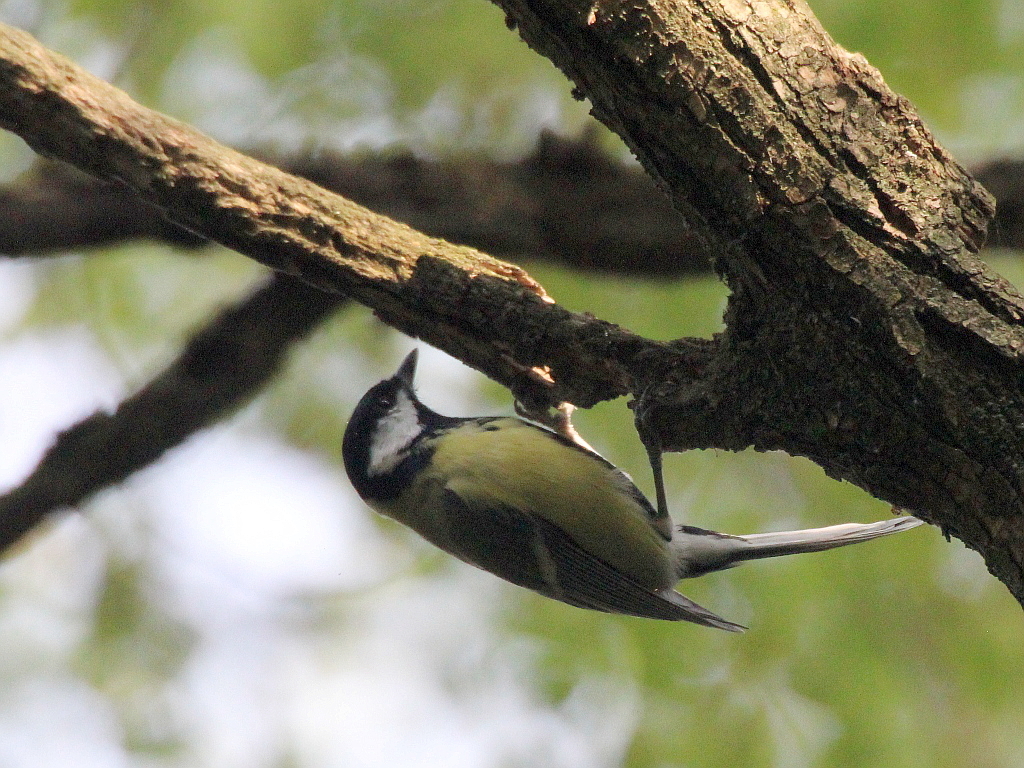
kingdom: Animalia
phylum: Chordata
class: Aves
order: Passeriformes
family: Paridae
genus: Parus
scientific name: Parus major
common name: Great tit
